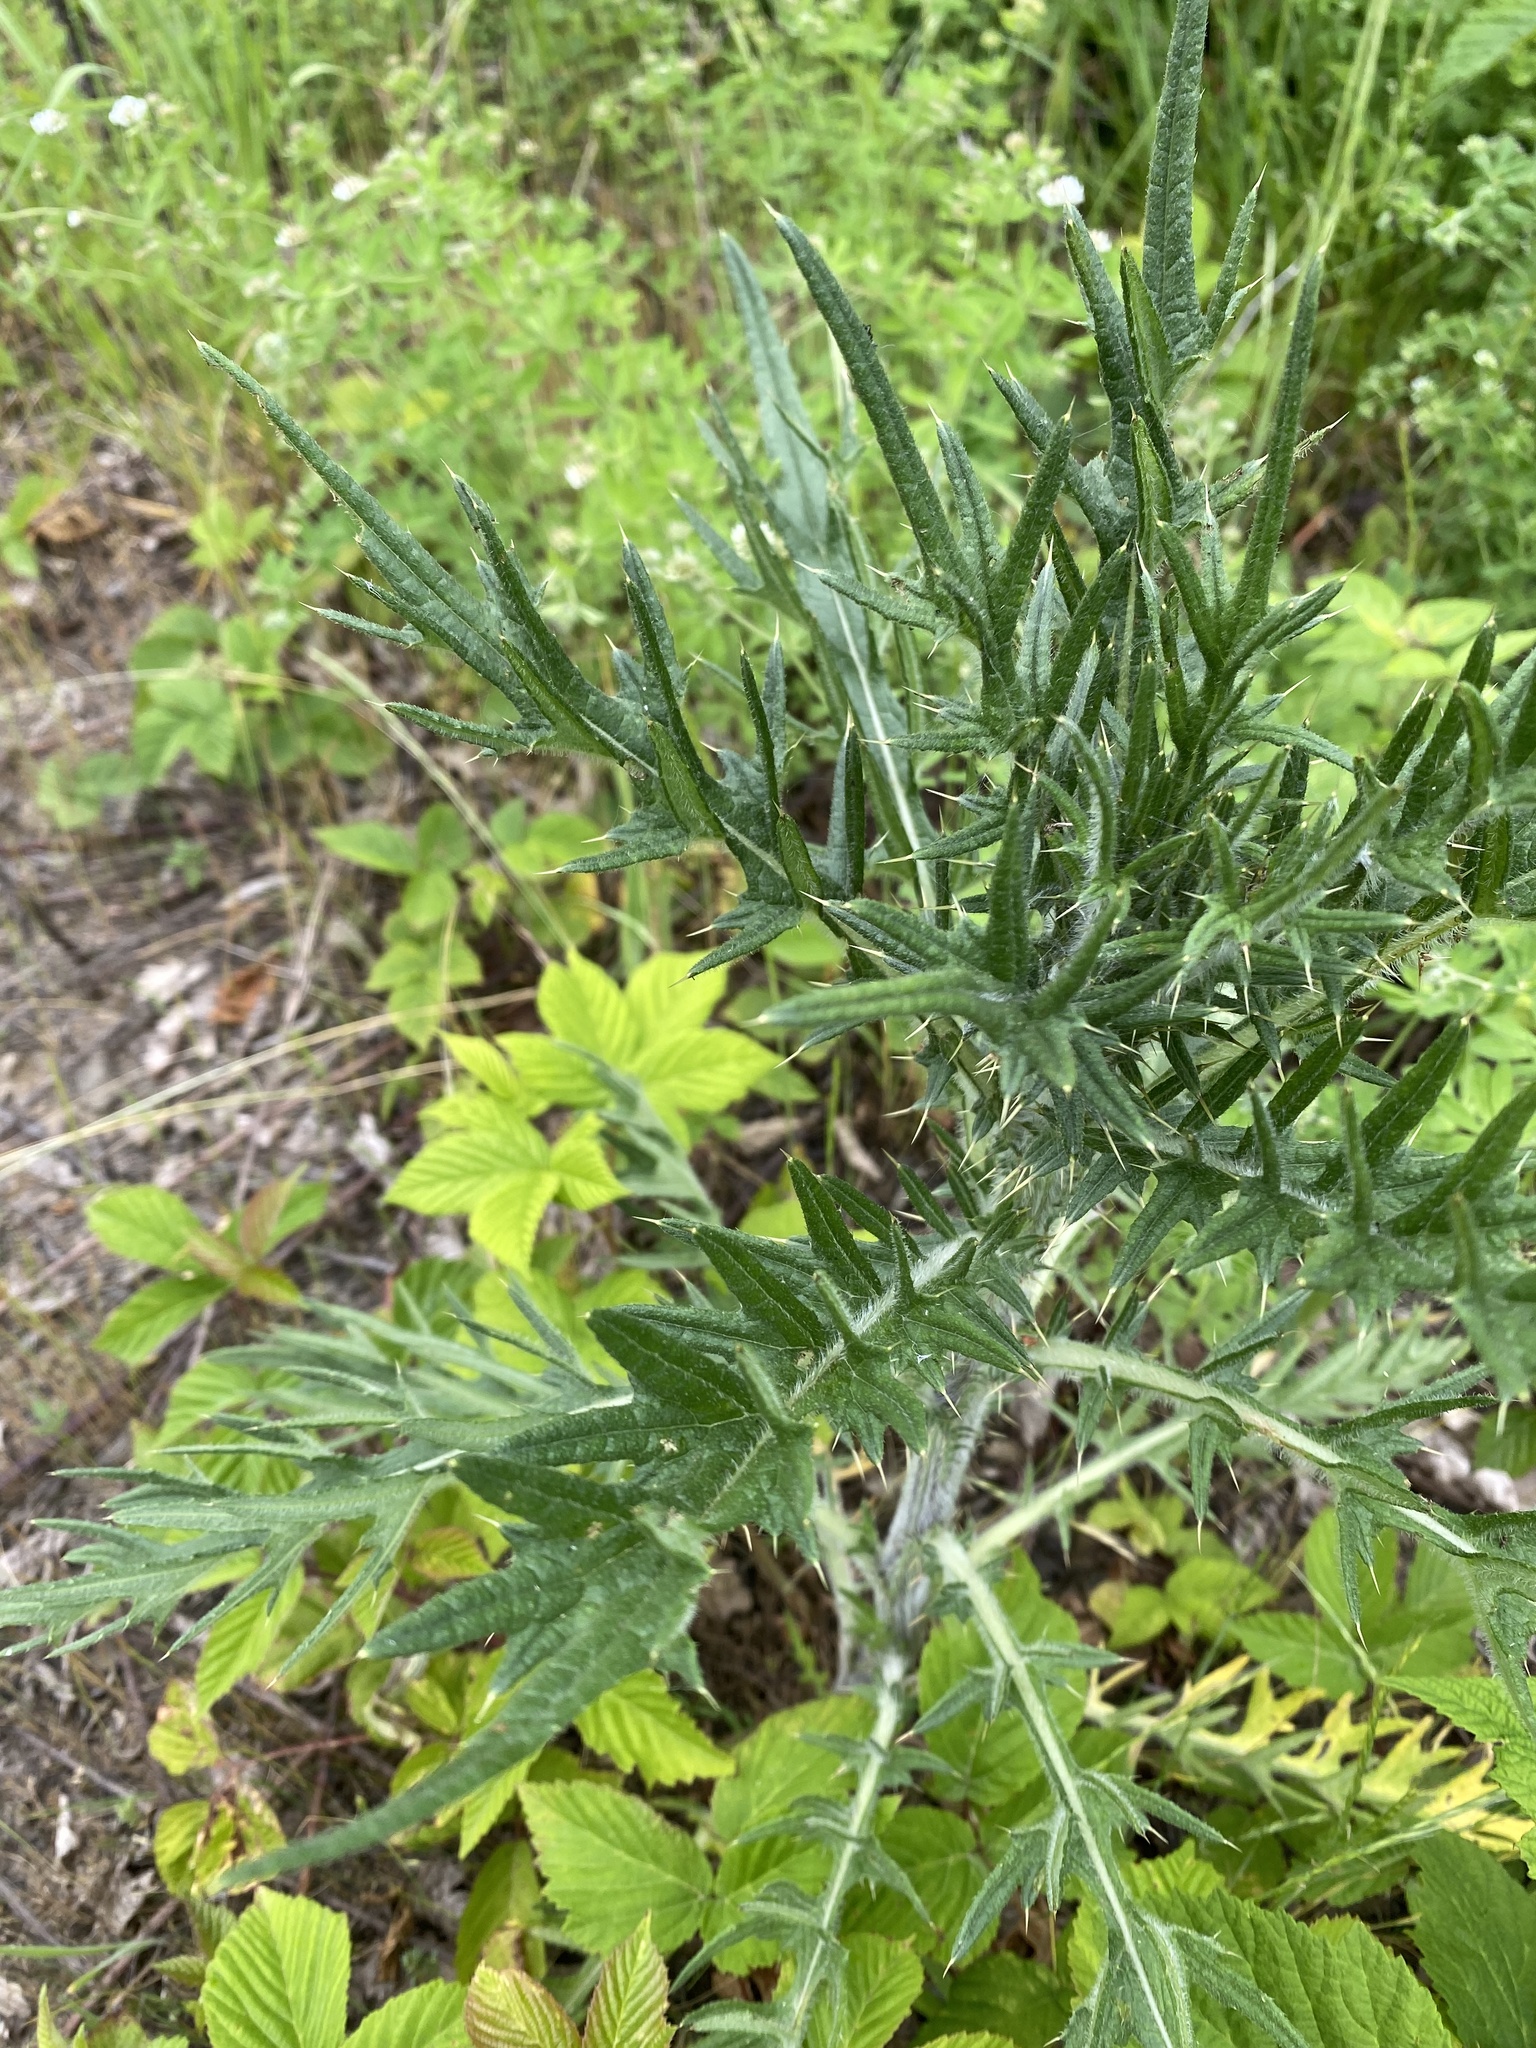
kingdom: Plantae
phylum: Tracheophyta
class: Magnoliopsida
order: Asterales
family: Asteraceae
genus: Cirsium
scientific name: Cirsium vulgare
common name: Bull thistle
